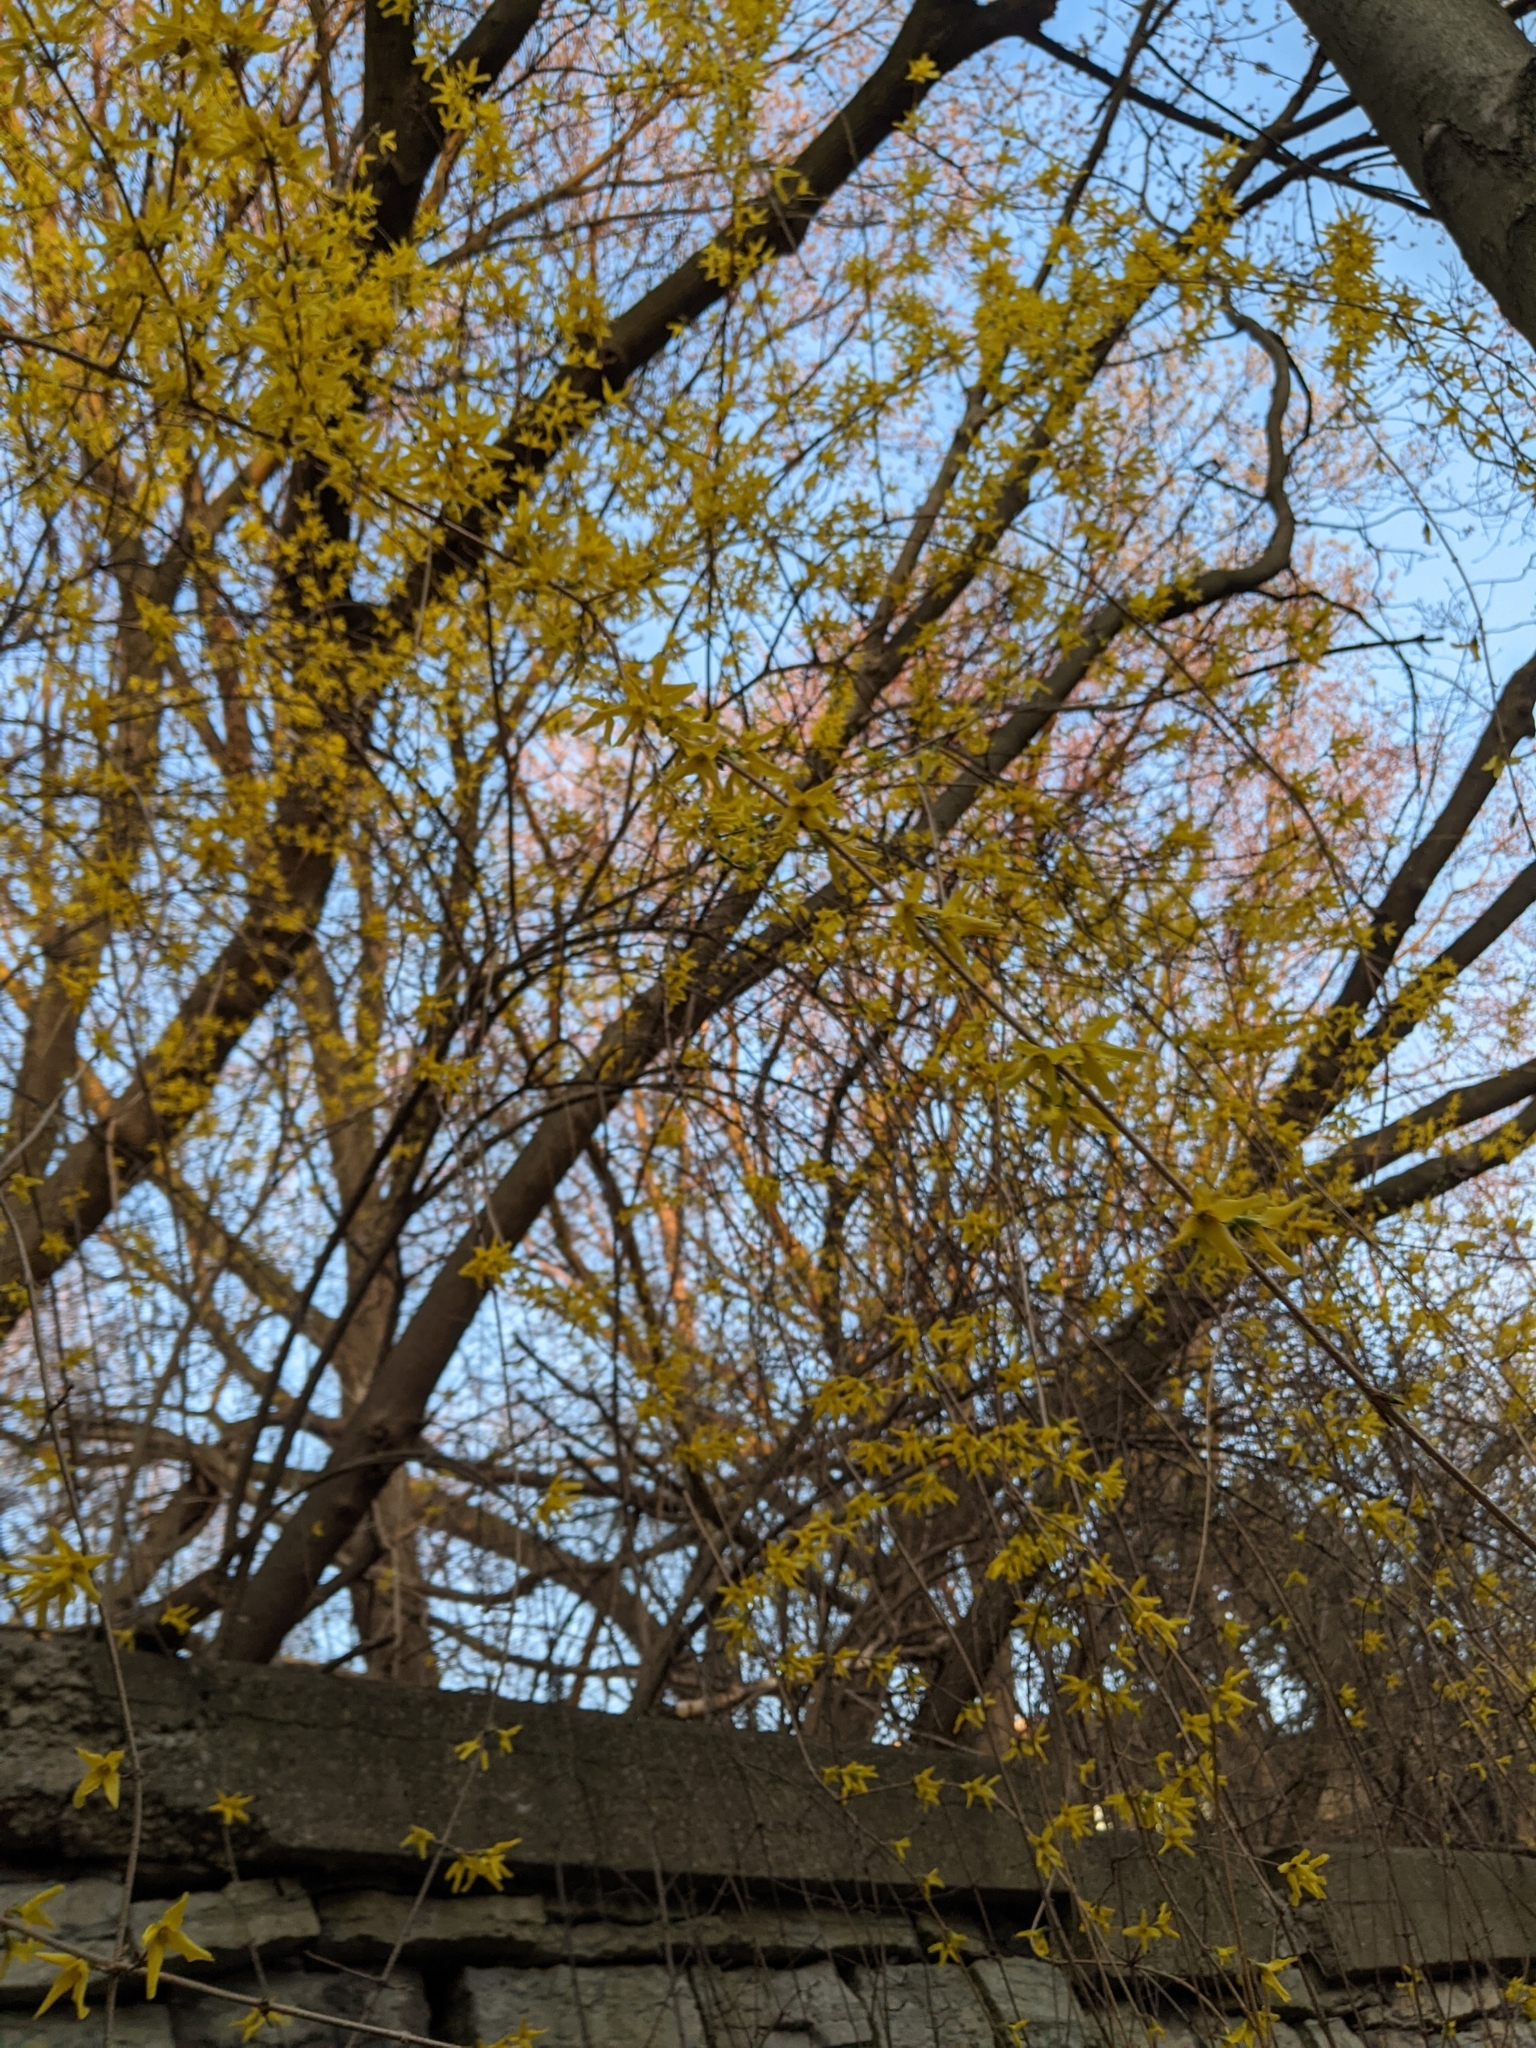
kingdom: Plantae
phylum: Tracheophyta
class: Magnoliopsida
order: Lamiales
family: Oleaceae
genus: Forsythia
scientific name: Forsythia intermedia
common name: Forsythia
